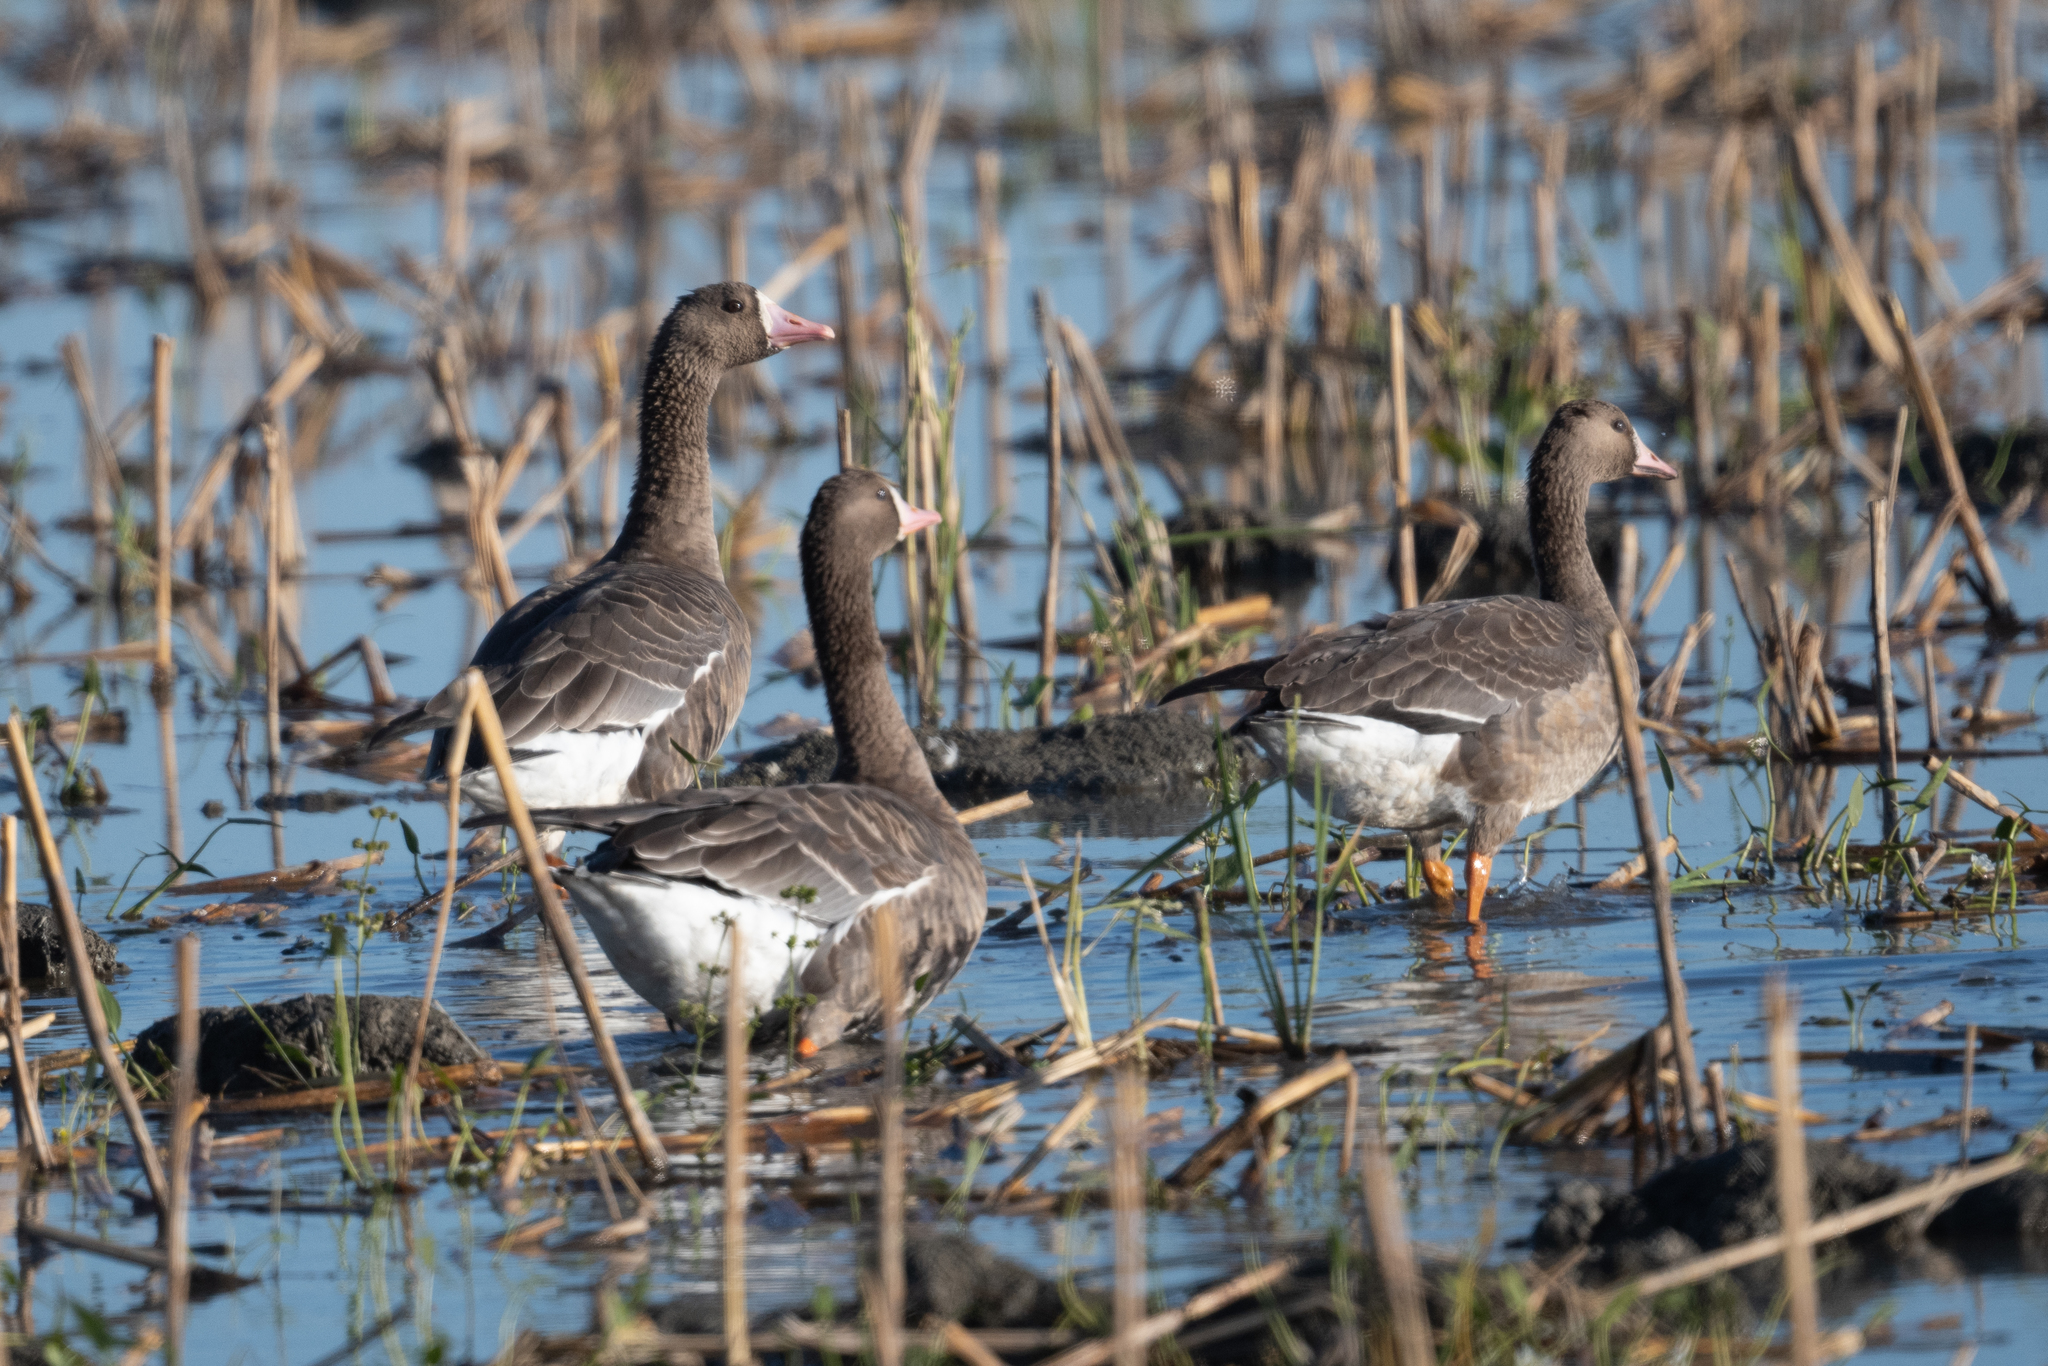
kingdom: Animalia
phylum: Chordata
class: Aves
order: Anseriformes
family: Anatidae
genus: Anser
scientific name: Anser albifrons
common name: Greater white-fronted goose
